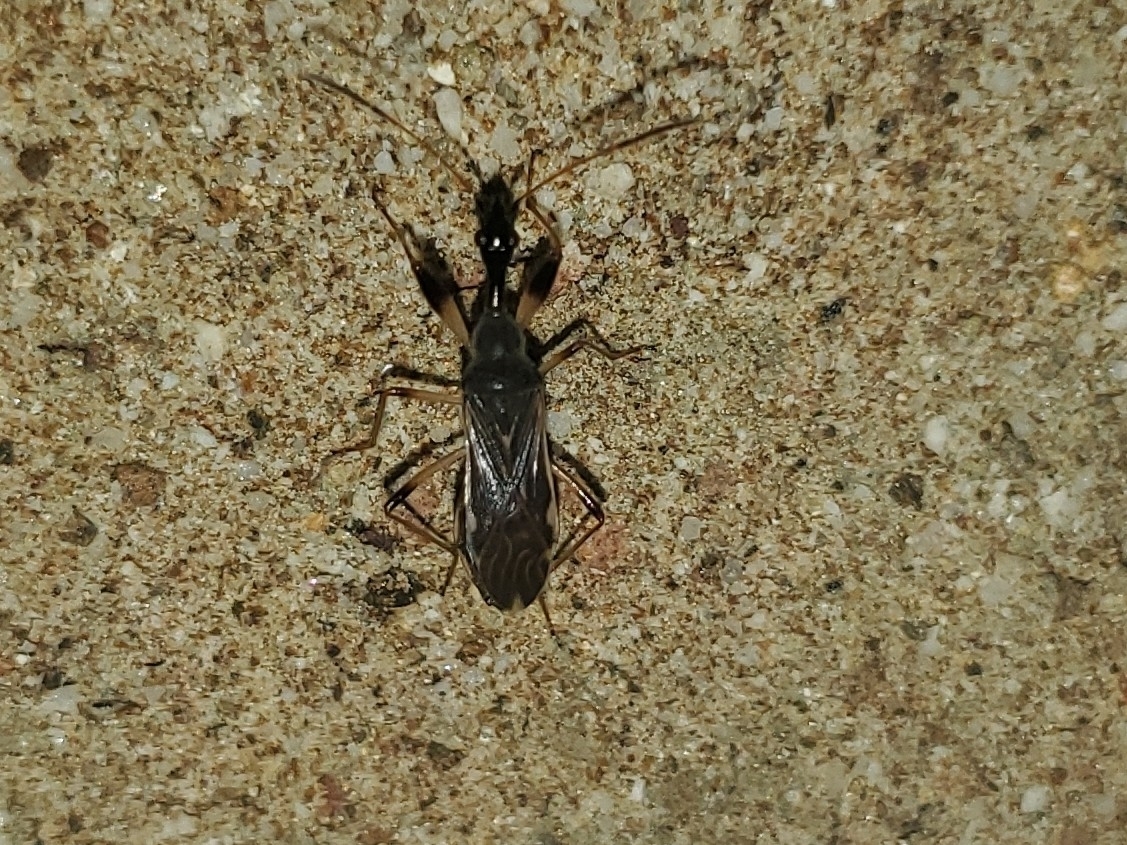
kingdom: Animalia
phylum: Arthropoda
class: Insecta
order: Hemiptera
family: Rhyparochromidae
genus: Myodocha
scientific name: Myodocha serripes
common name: Long-necked seed bug
